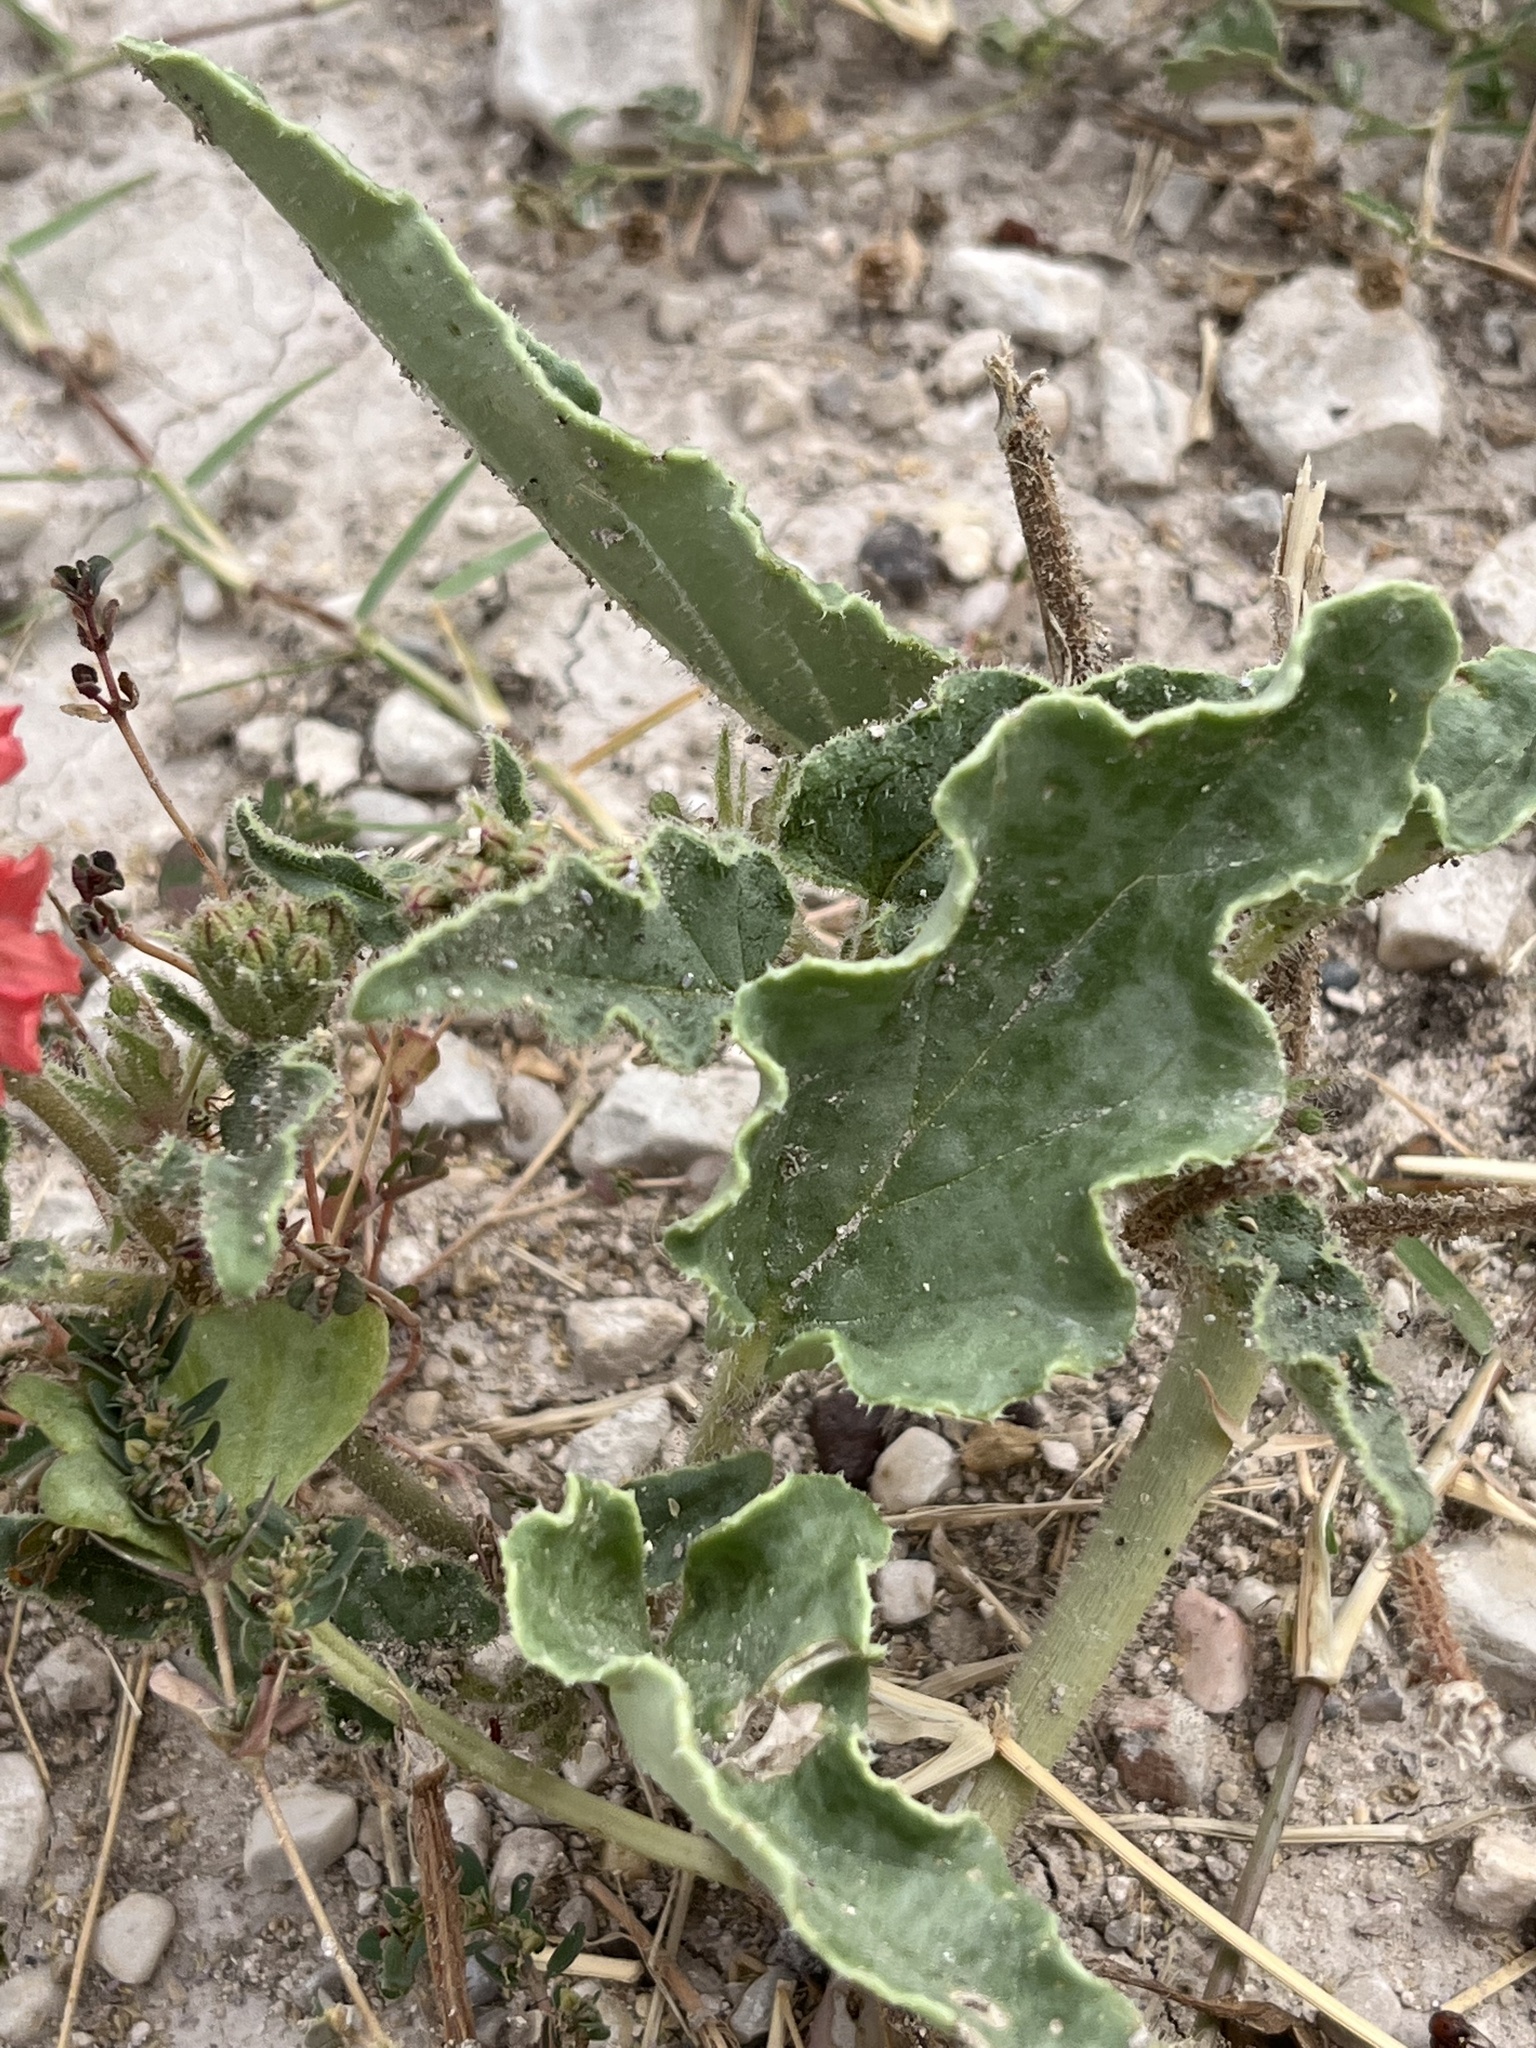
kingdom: Plantae
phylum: Tracheophyta
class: Magnoliopsida
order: Caryophyllales
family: Nyctaginaceae
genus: Nyctaginia
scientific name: Nyctaginia capitata
